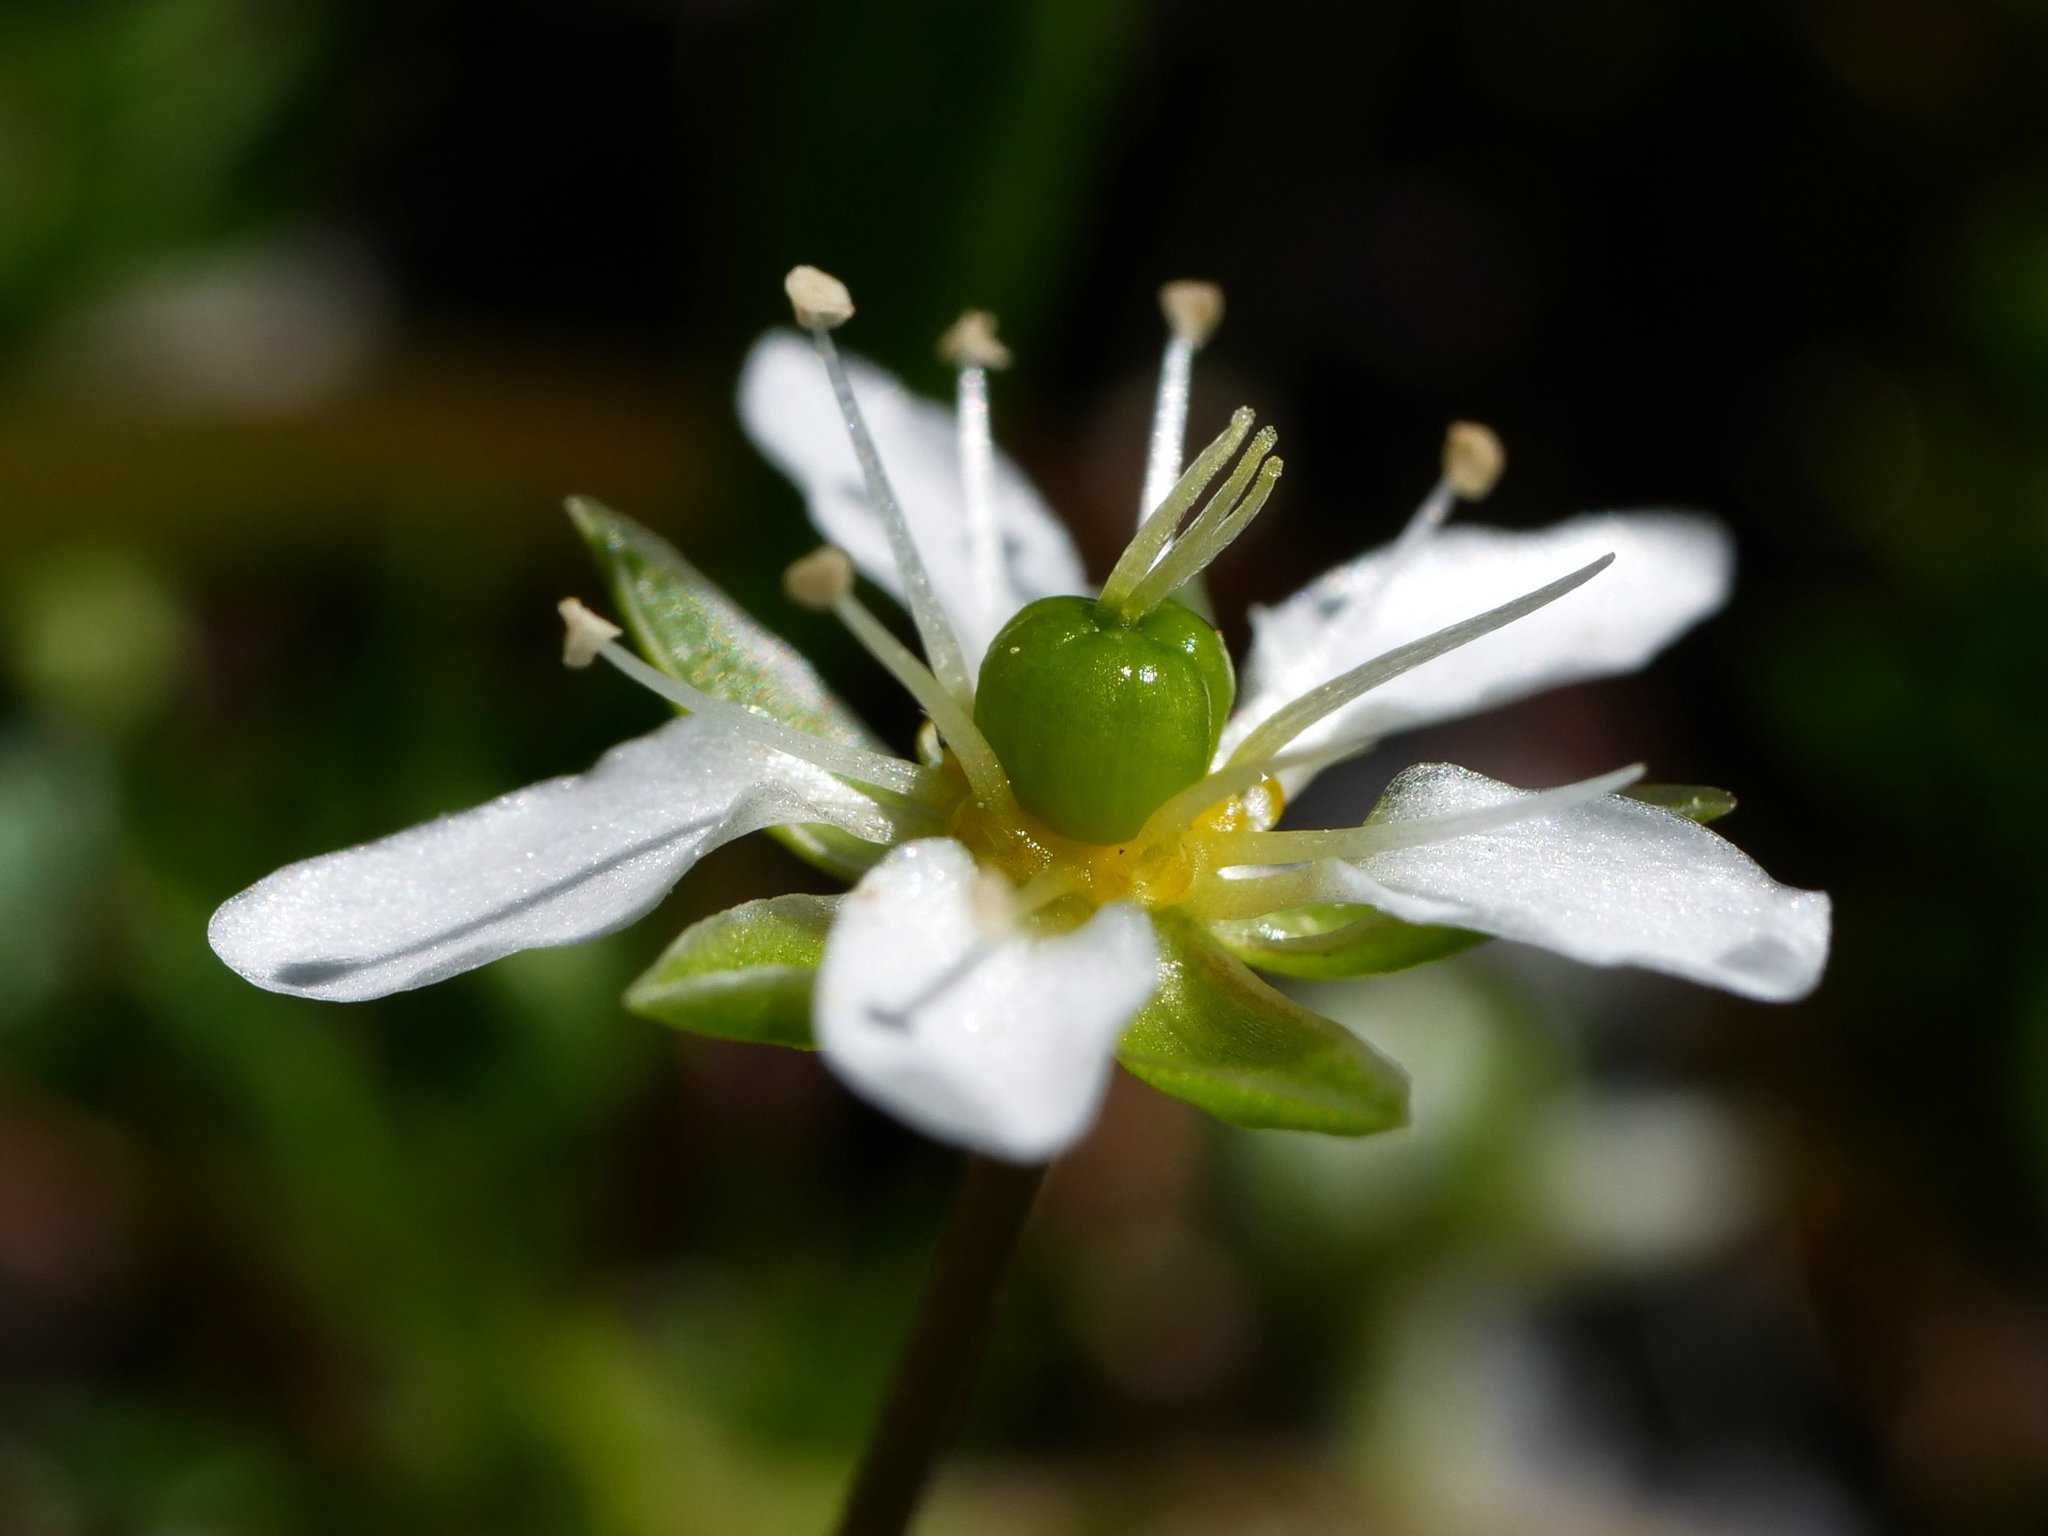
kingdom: Plantae
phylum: Tracheophyta
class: Magnoliopsida
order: Caryophyllales
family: Caryophyllaceae
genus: Moehringia
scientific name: Moehringia ciliata
